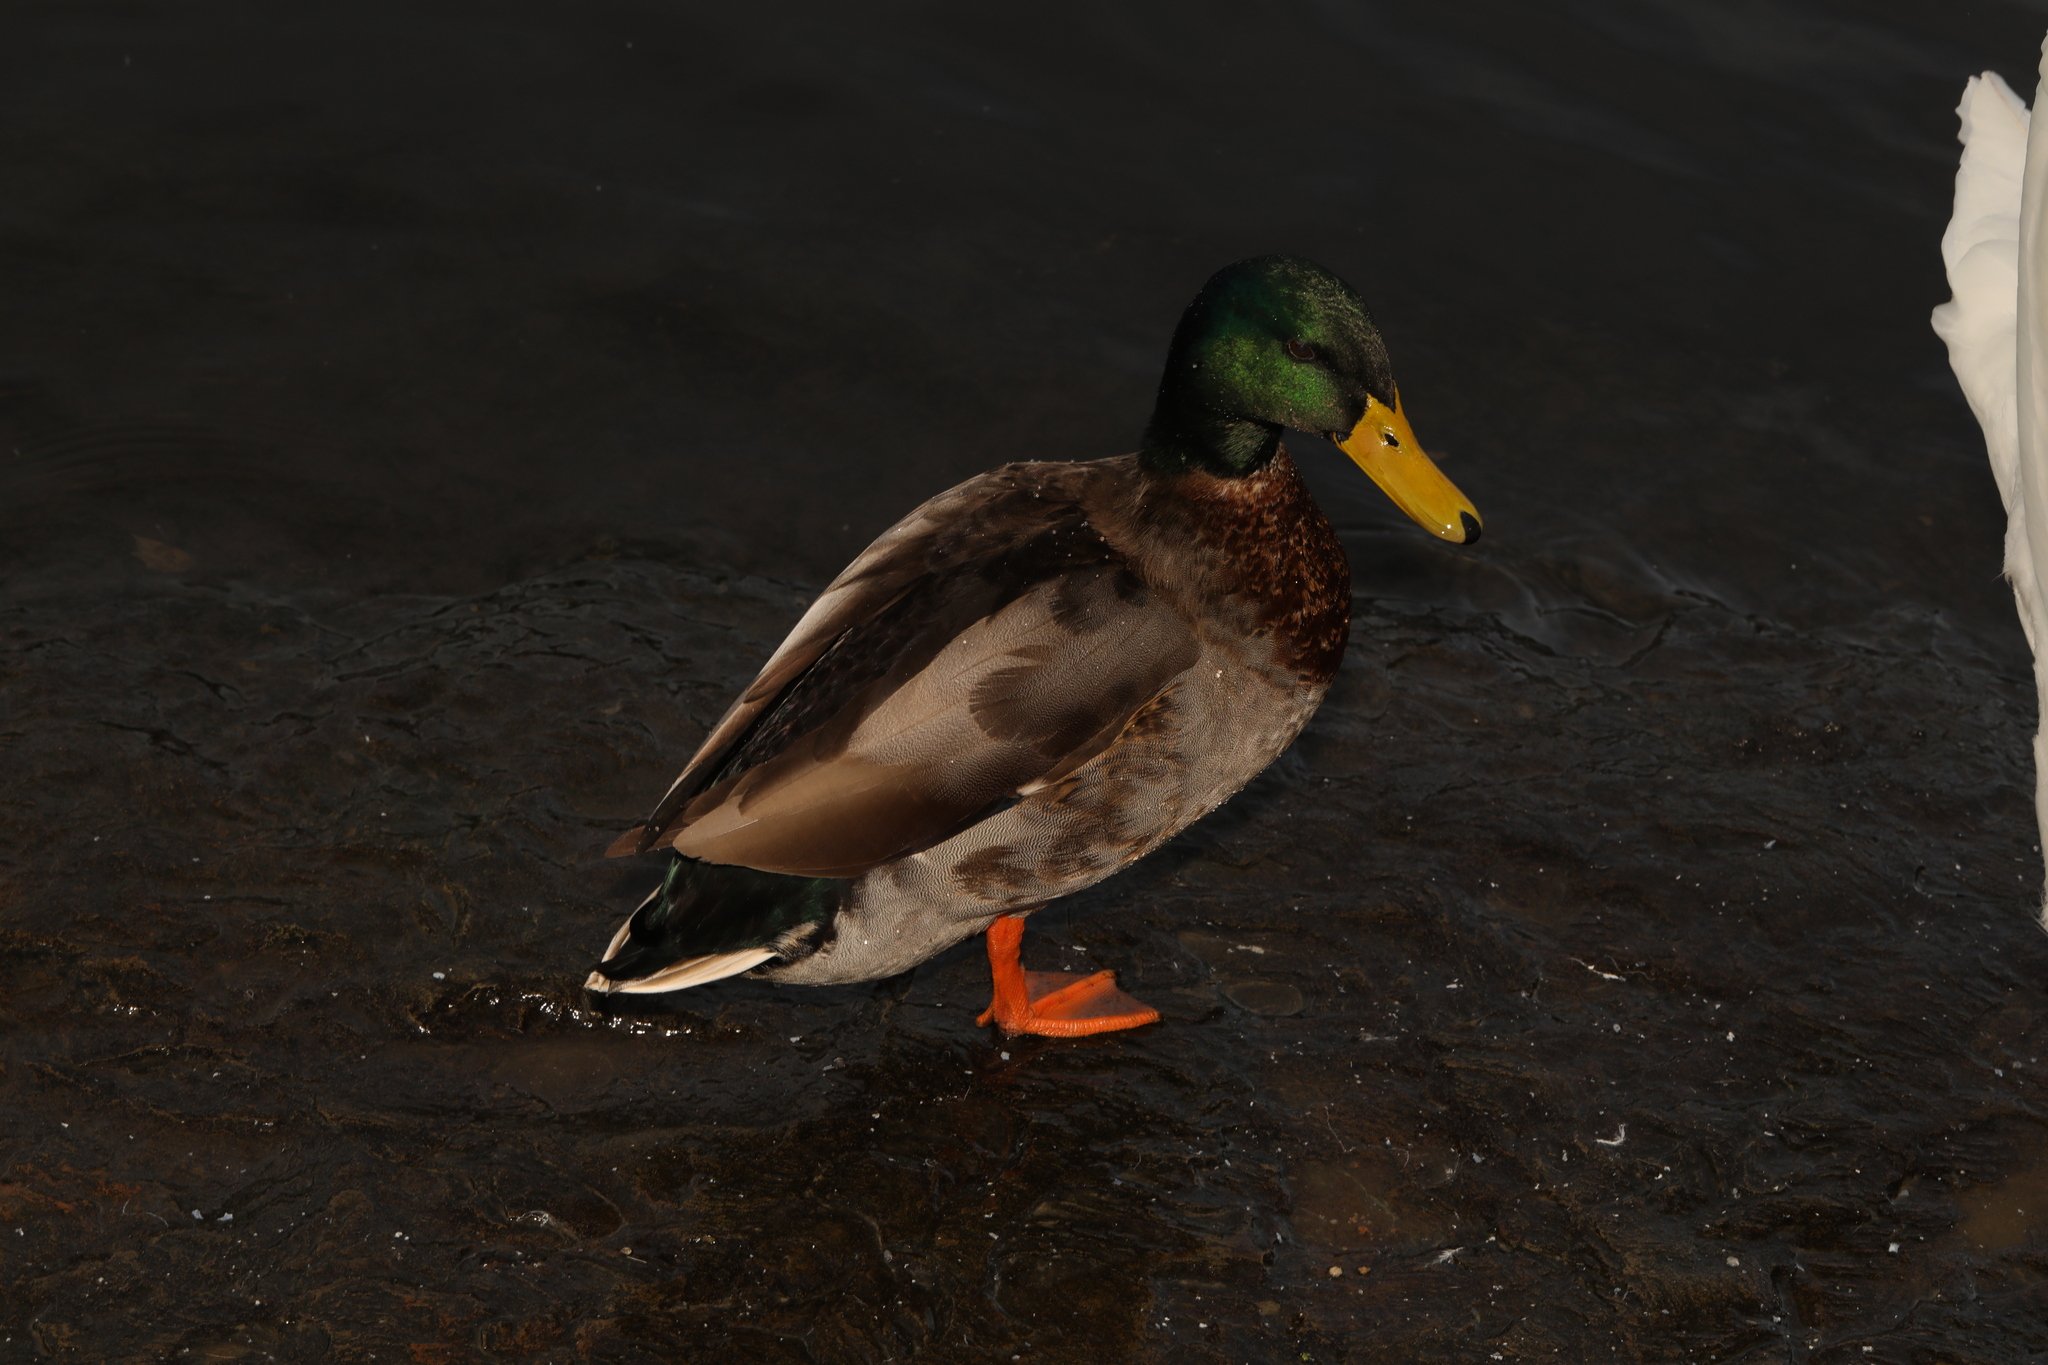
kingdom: Animalia
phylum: Chordata
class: Aves
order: Anseriformes
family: Anatidae
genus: Anas
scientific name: Anas platyrhynchos
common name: Mallard
